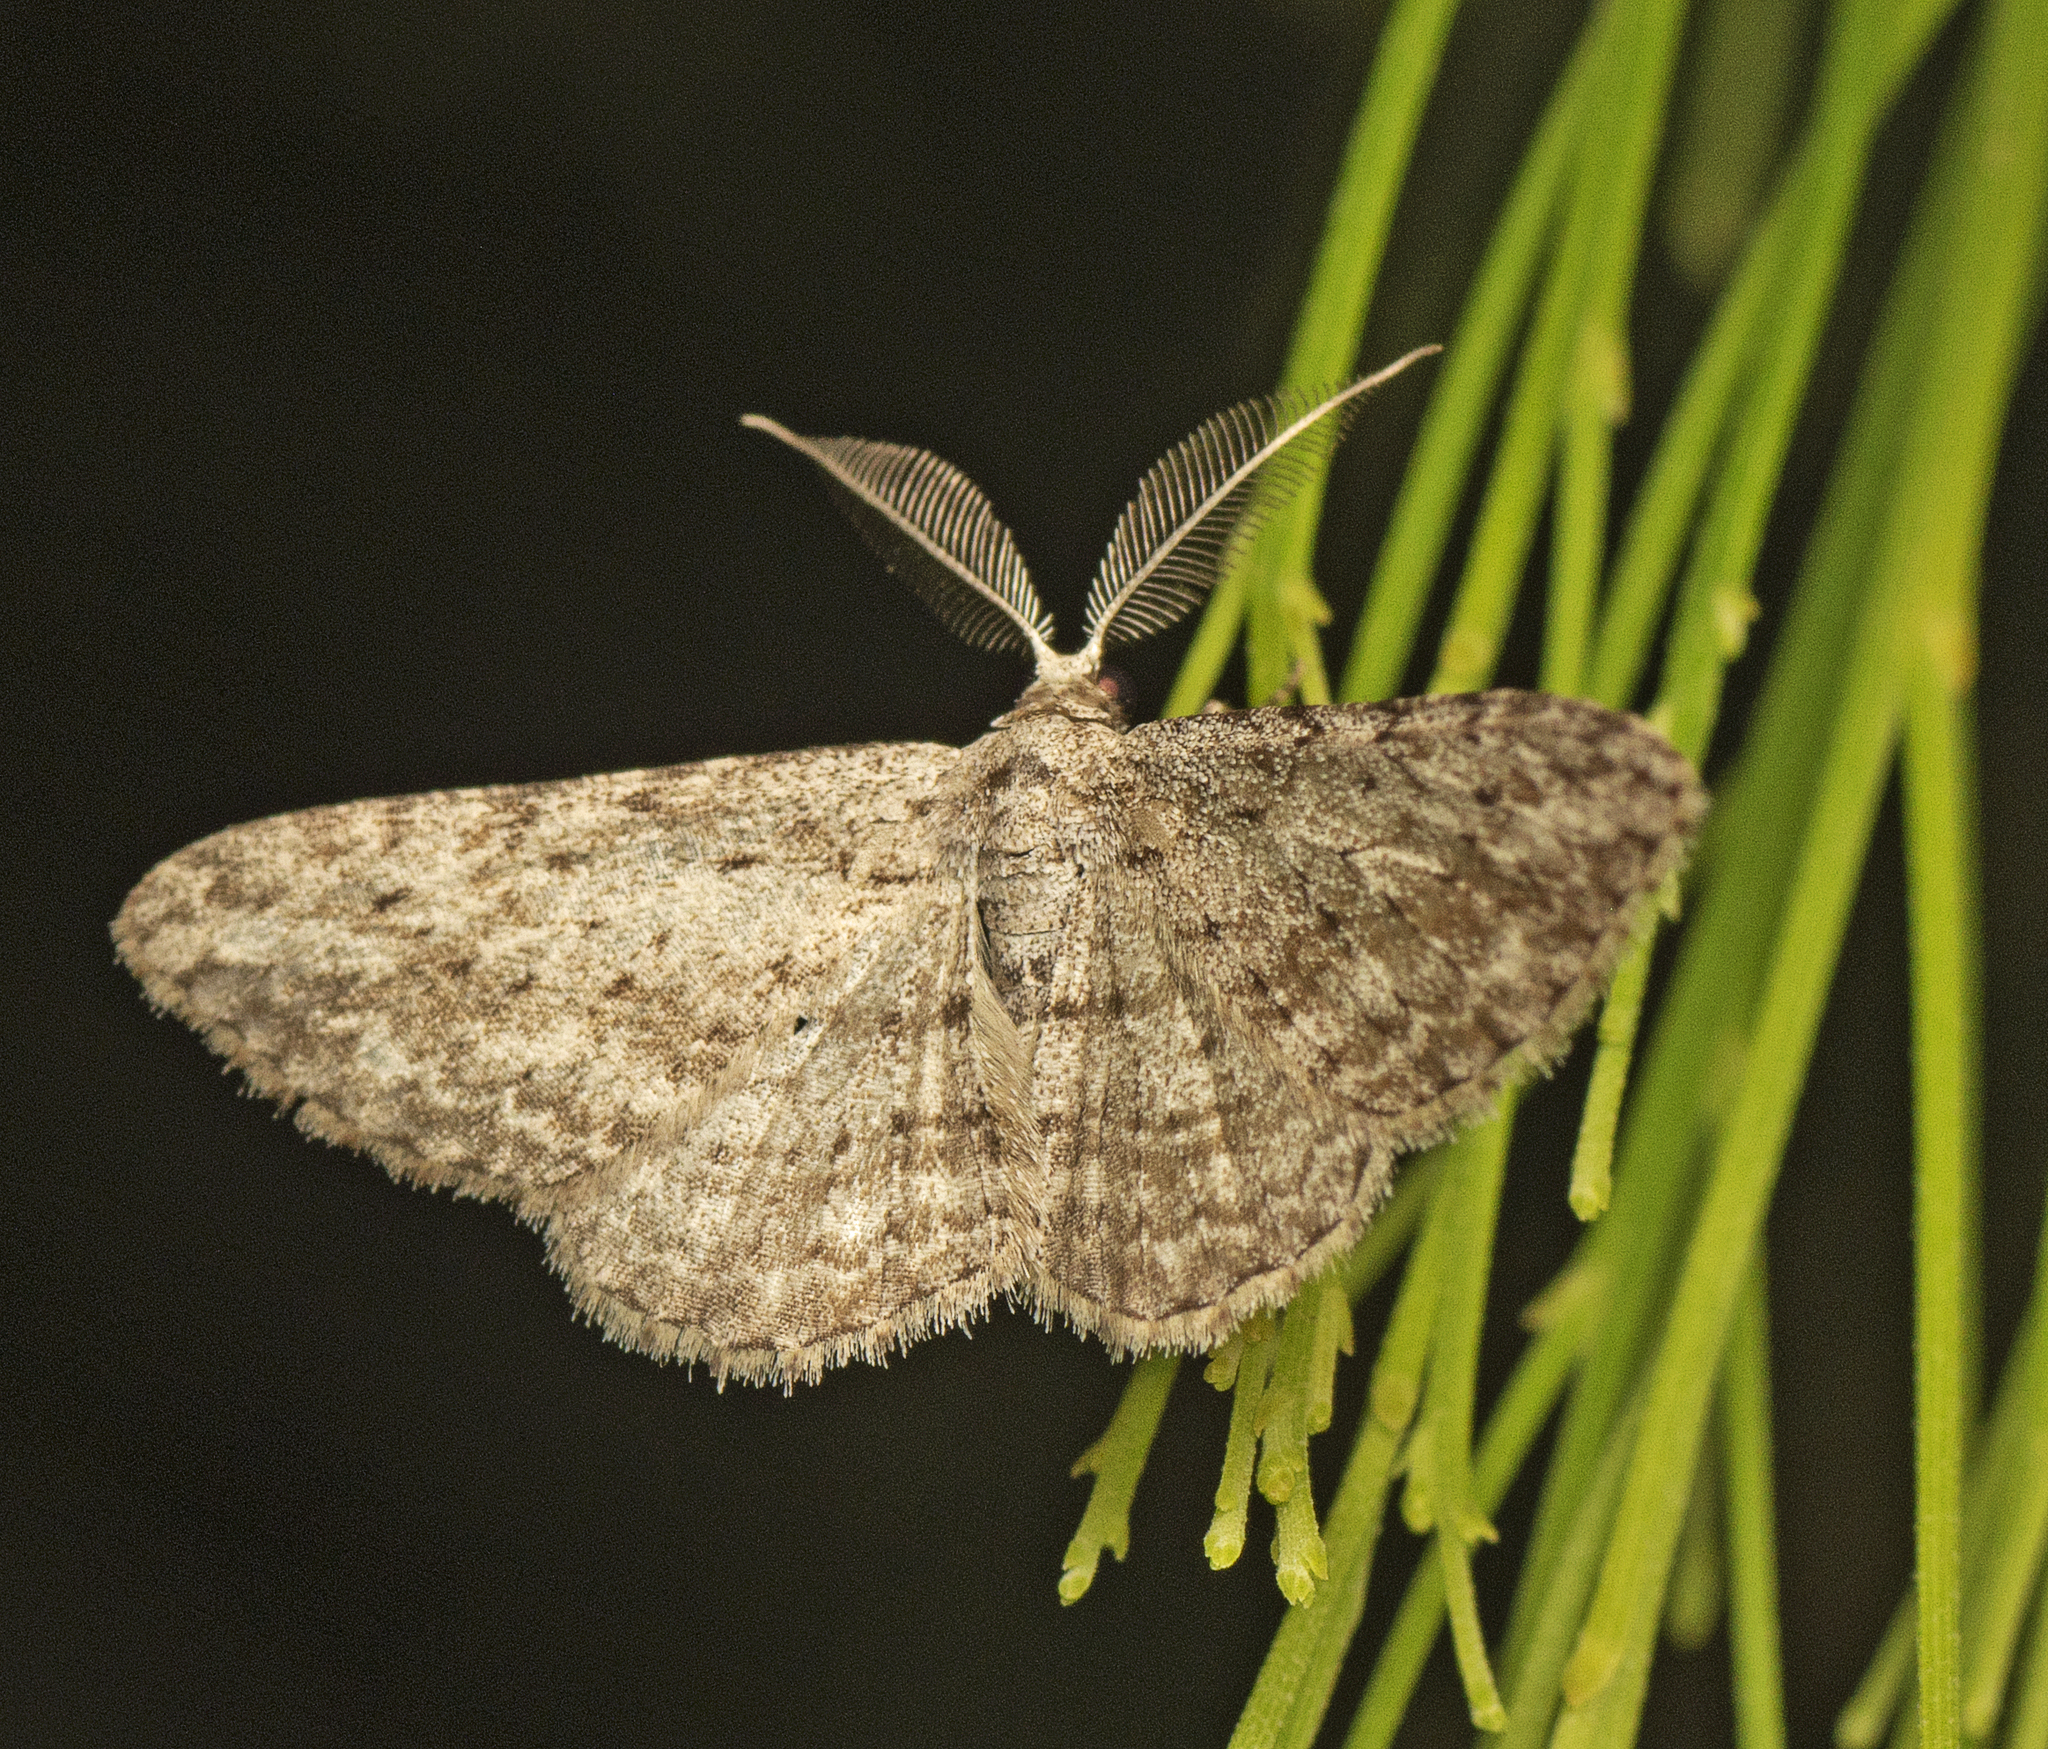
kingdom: Animalia
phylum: Arthropoda
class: Insecta
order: Lepidoptera
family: Geometridae
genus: Phelotis
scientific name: Phelotis cognata
